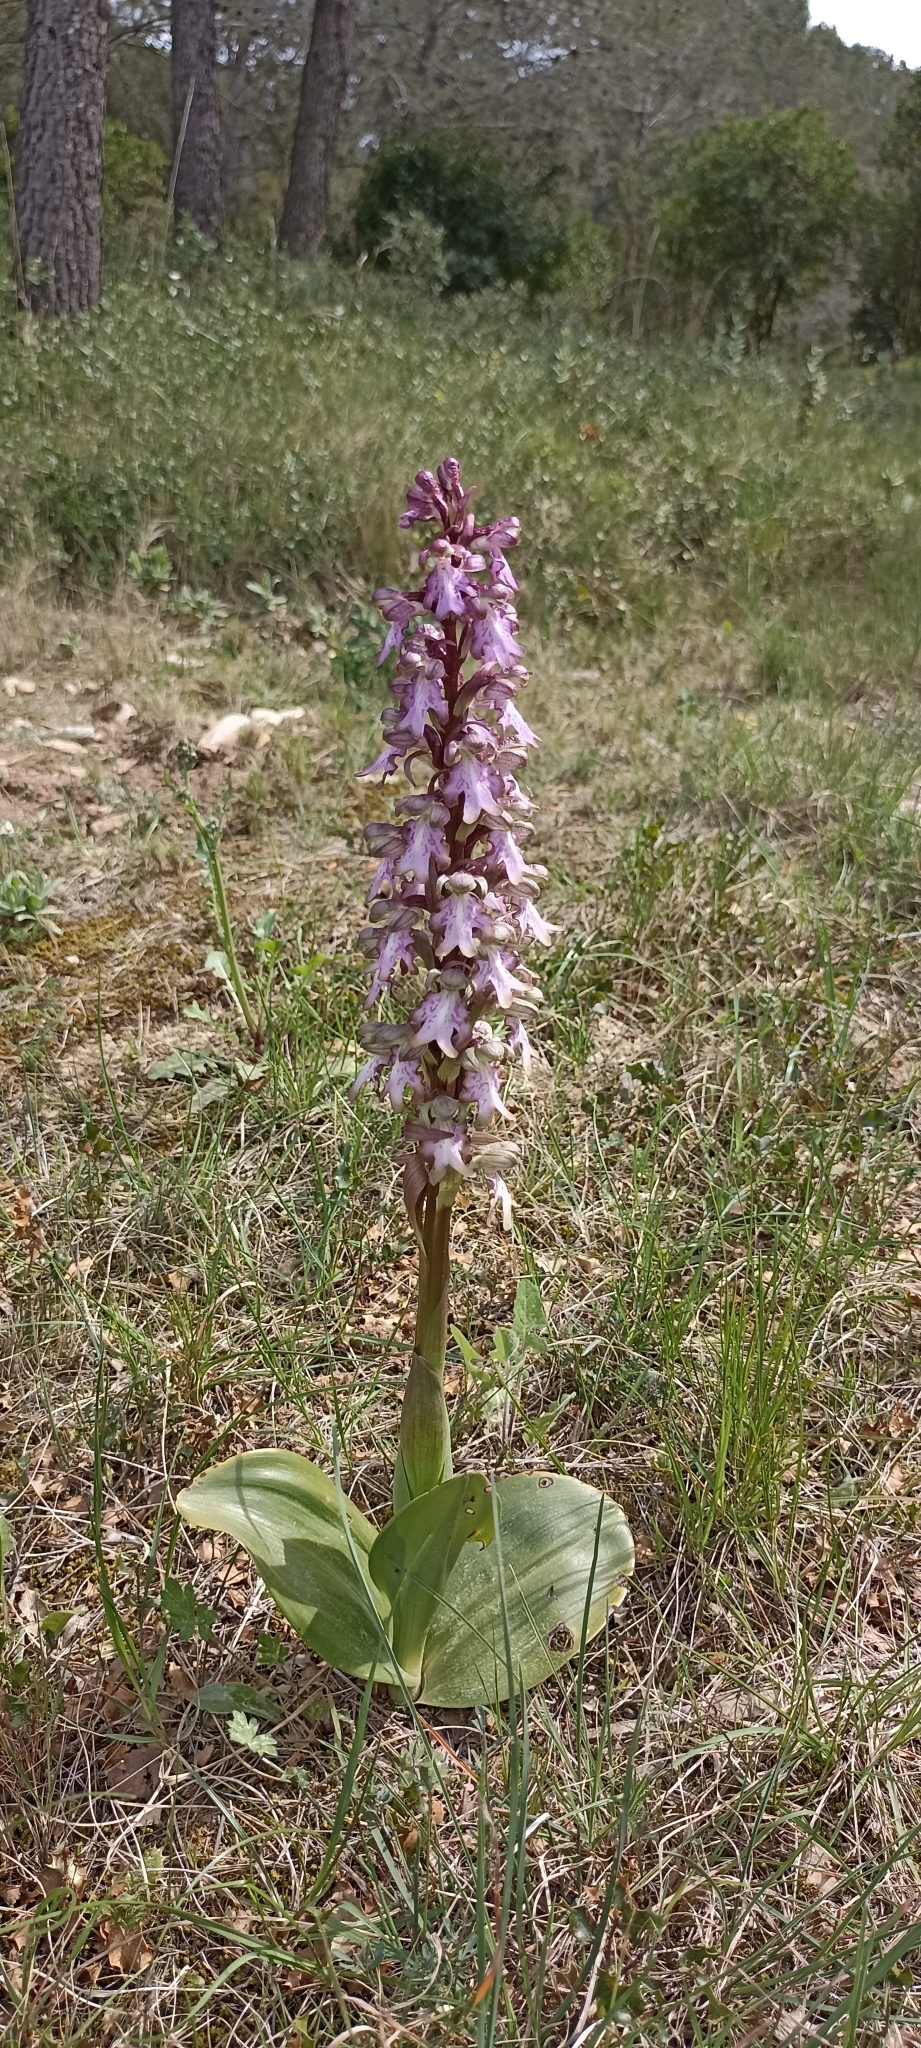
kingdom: Plantae
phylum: Tracheophyta
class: Liliopsida
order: Asparagales
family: Orchidaceae
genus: Himantoglossum
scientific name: Himantoglossum robertianum
